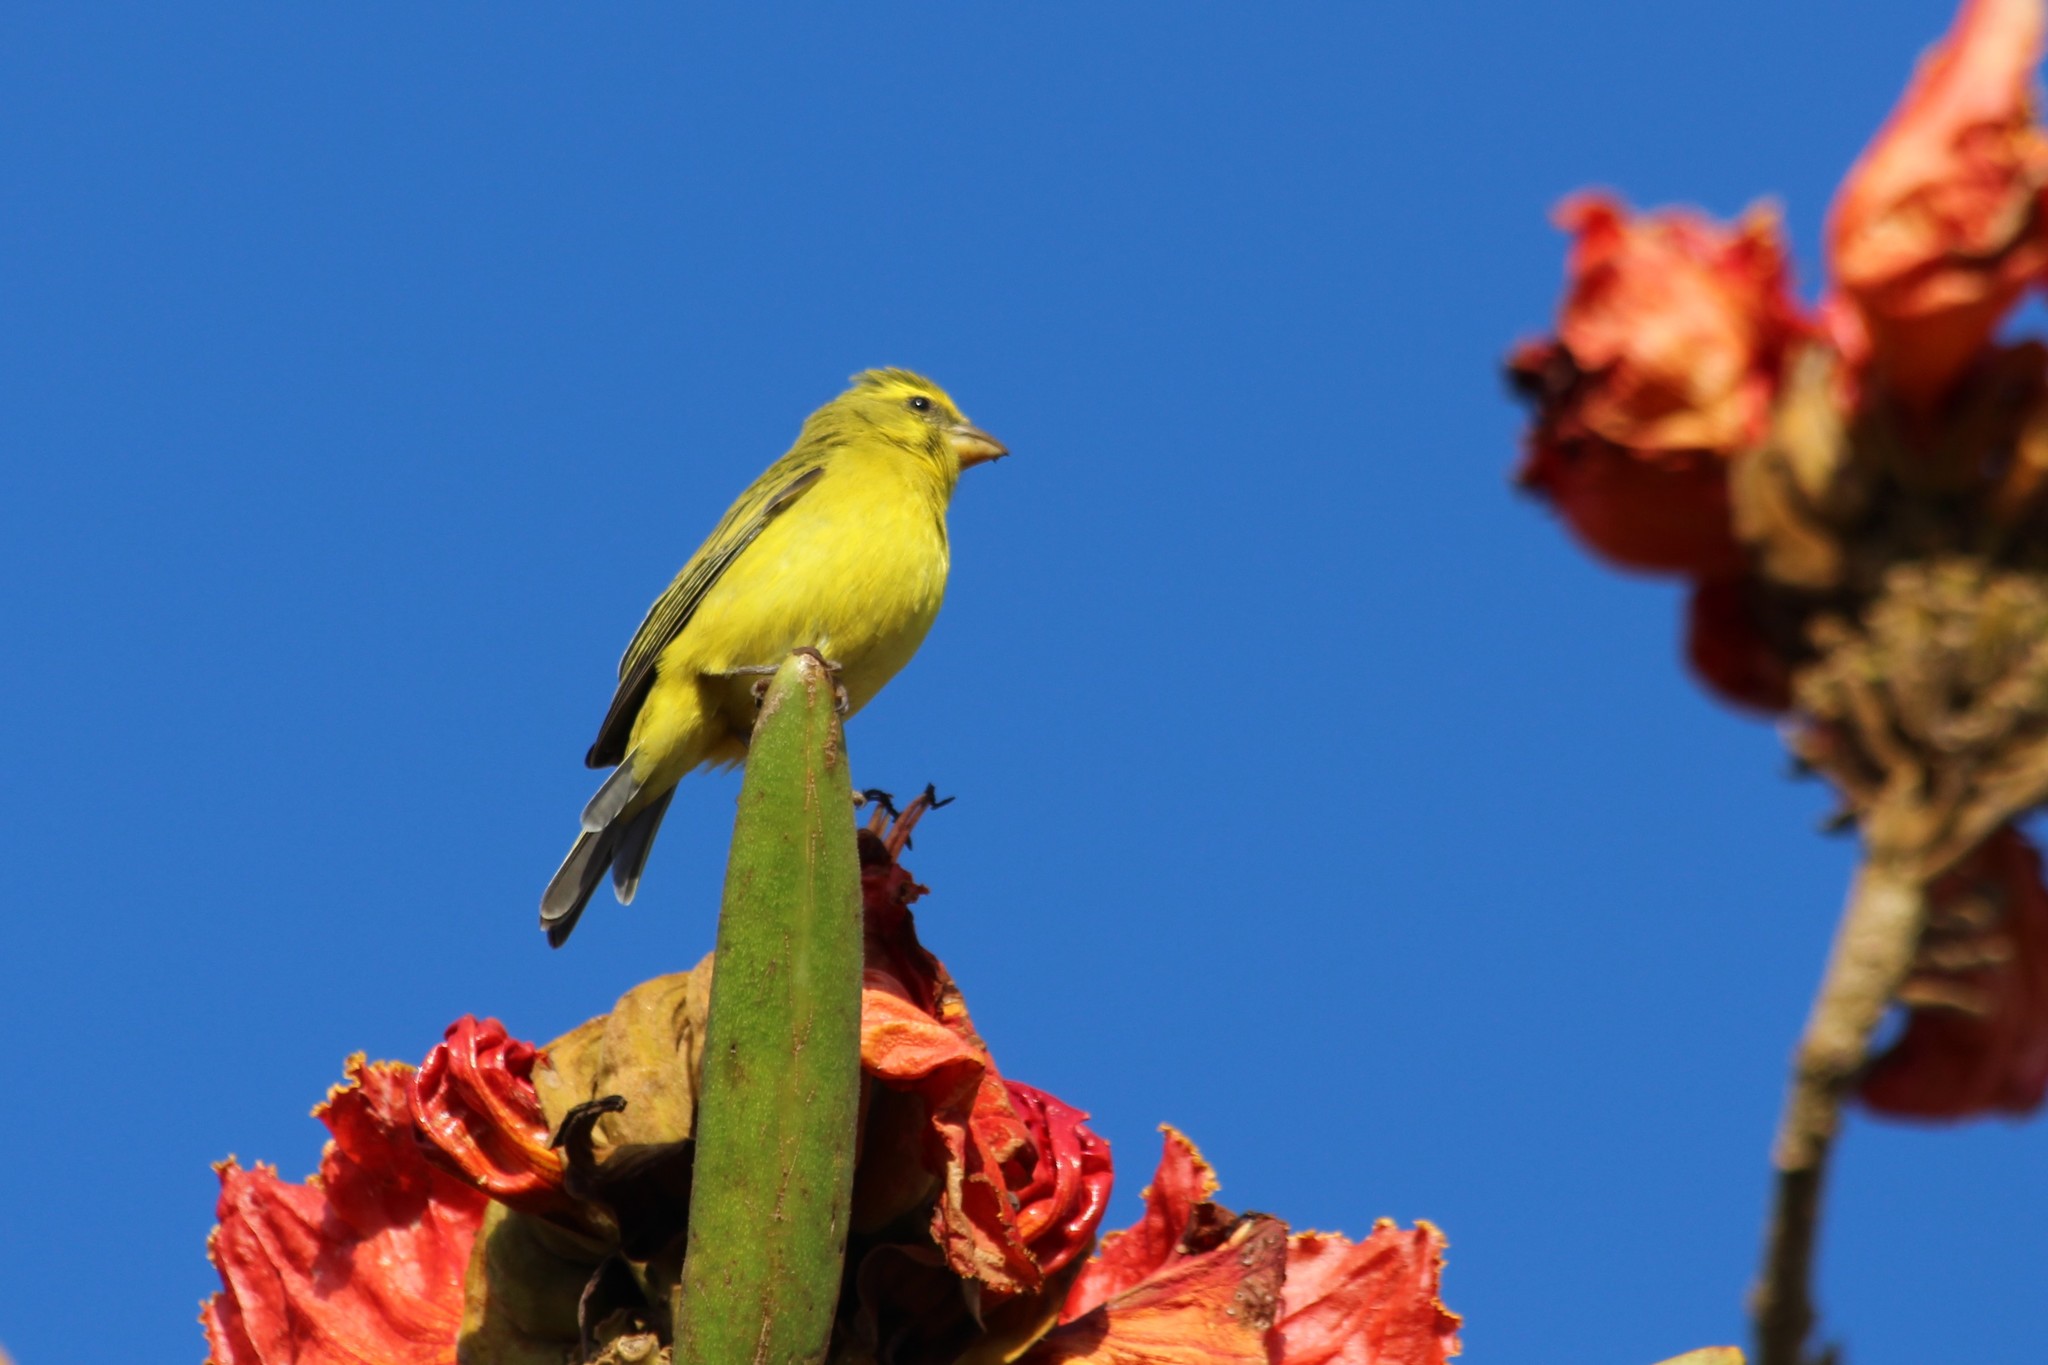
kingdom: Animalia
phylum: Chordata
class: Aves
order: Passeriformes
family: Fringillidae
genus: Crithagra
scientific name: Crithagra sulphurata
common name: Brimstone canary
